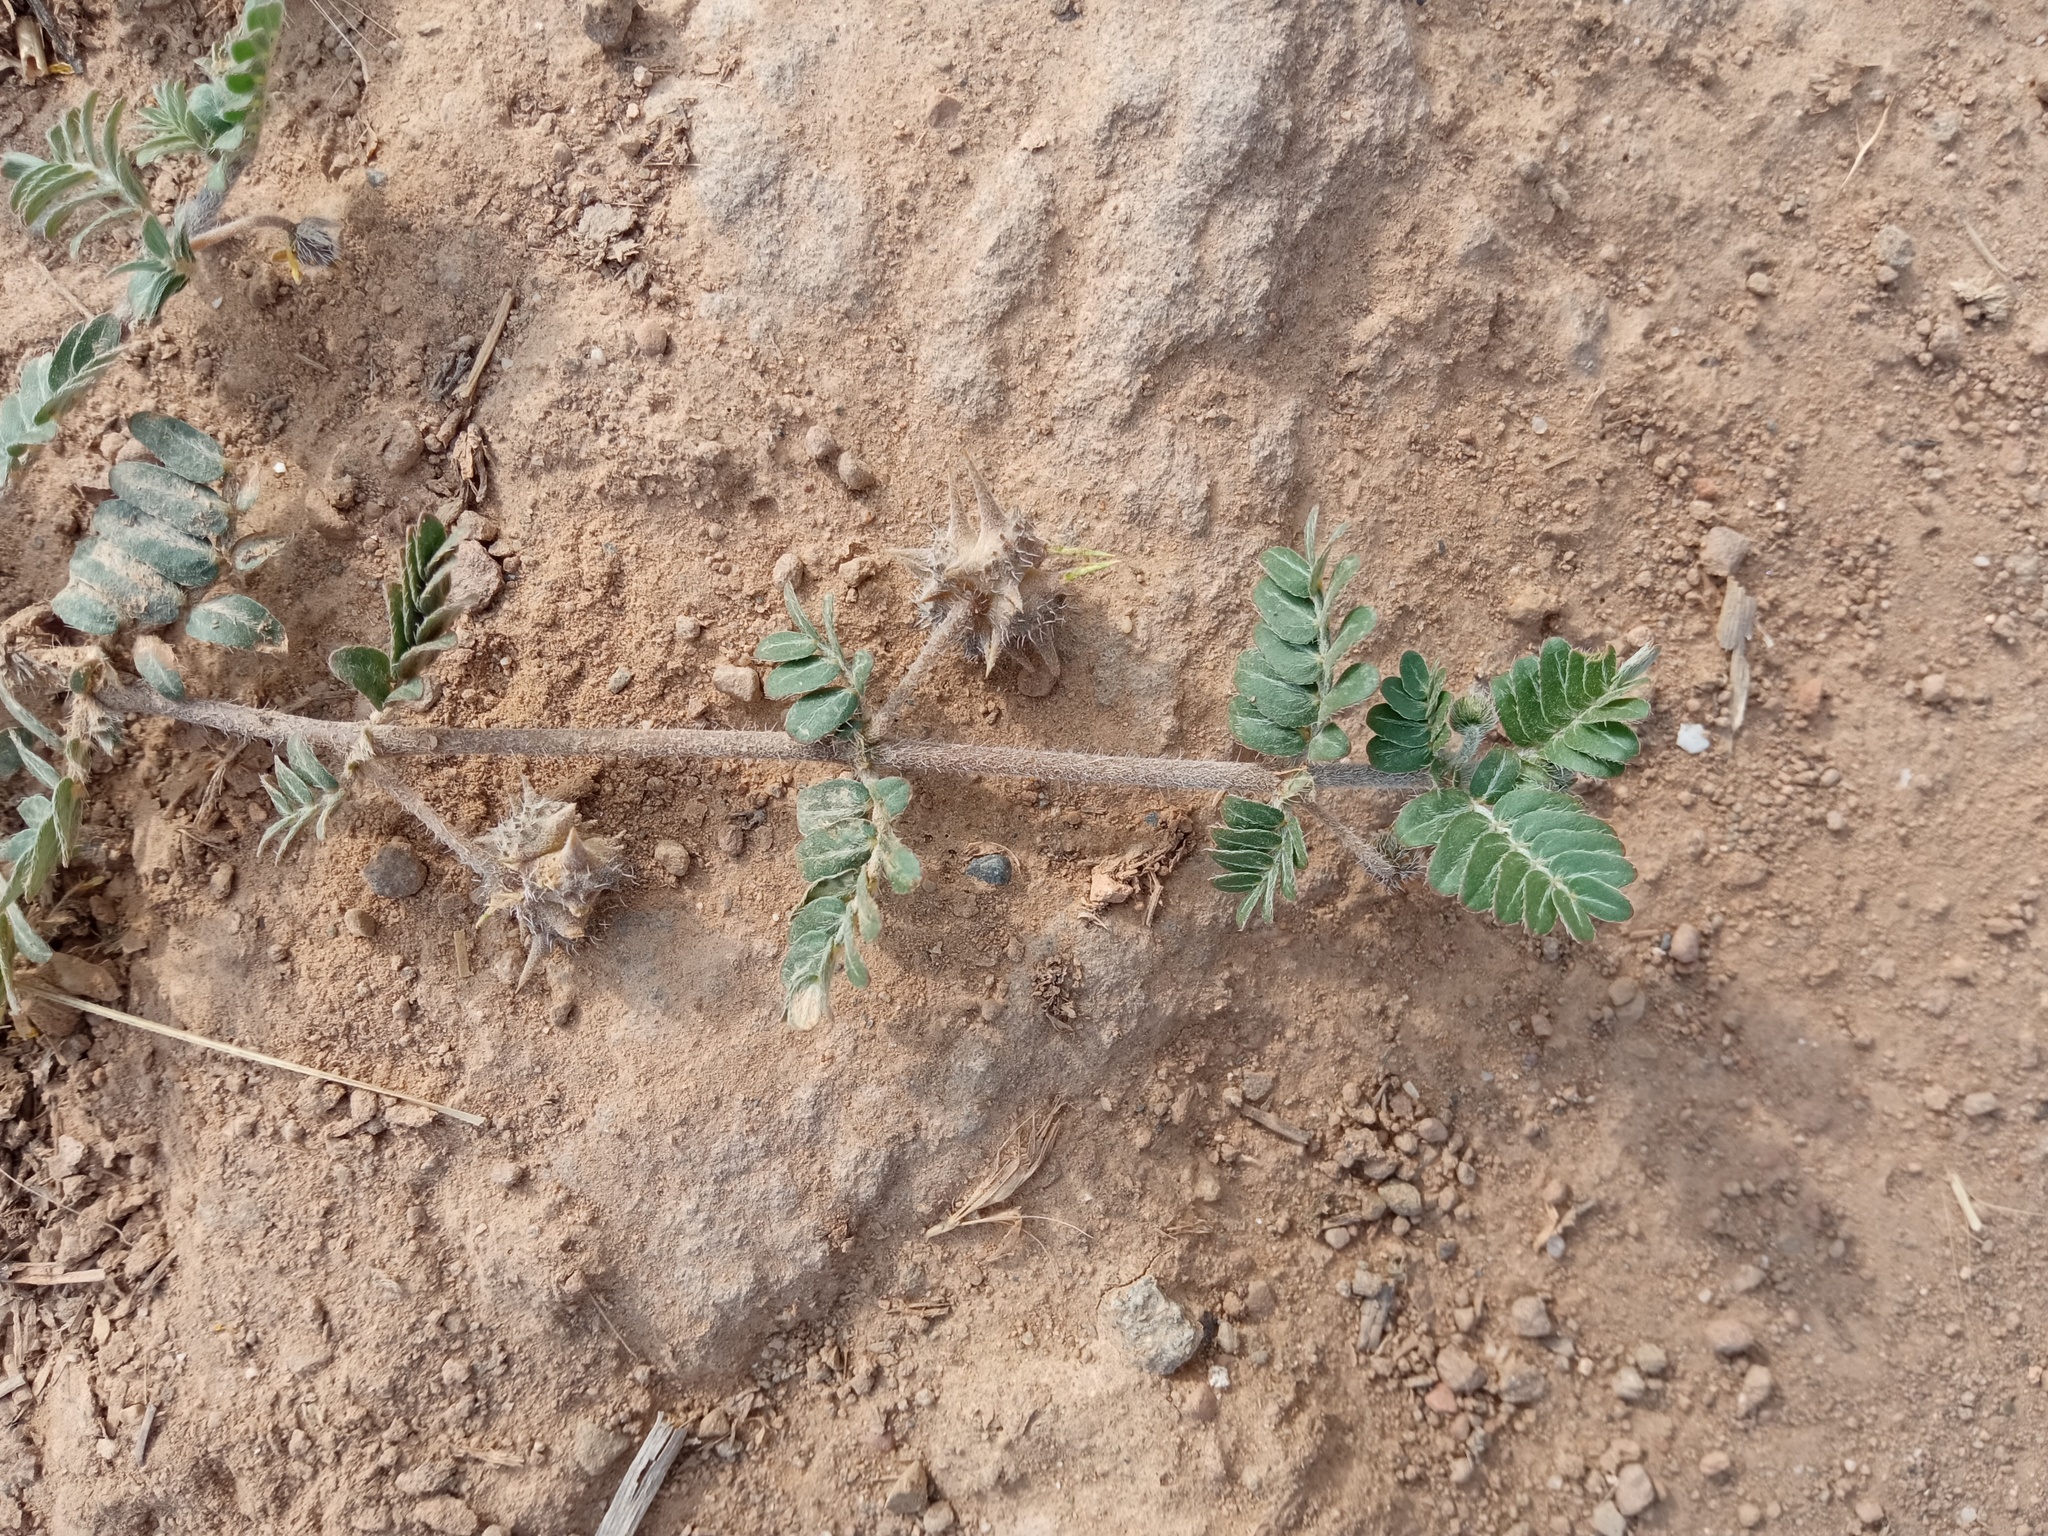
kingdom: Plantae
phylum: Tracheophyta
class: Magnoliopsida
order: Zygophyllales
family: Zygophyllaceae
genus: Tribulus
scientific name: Tribulus terrestris
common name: Puncturevine
